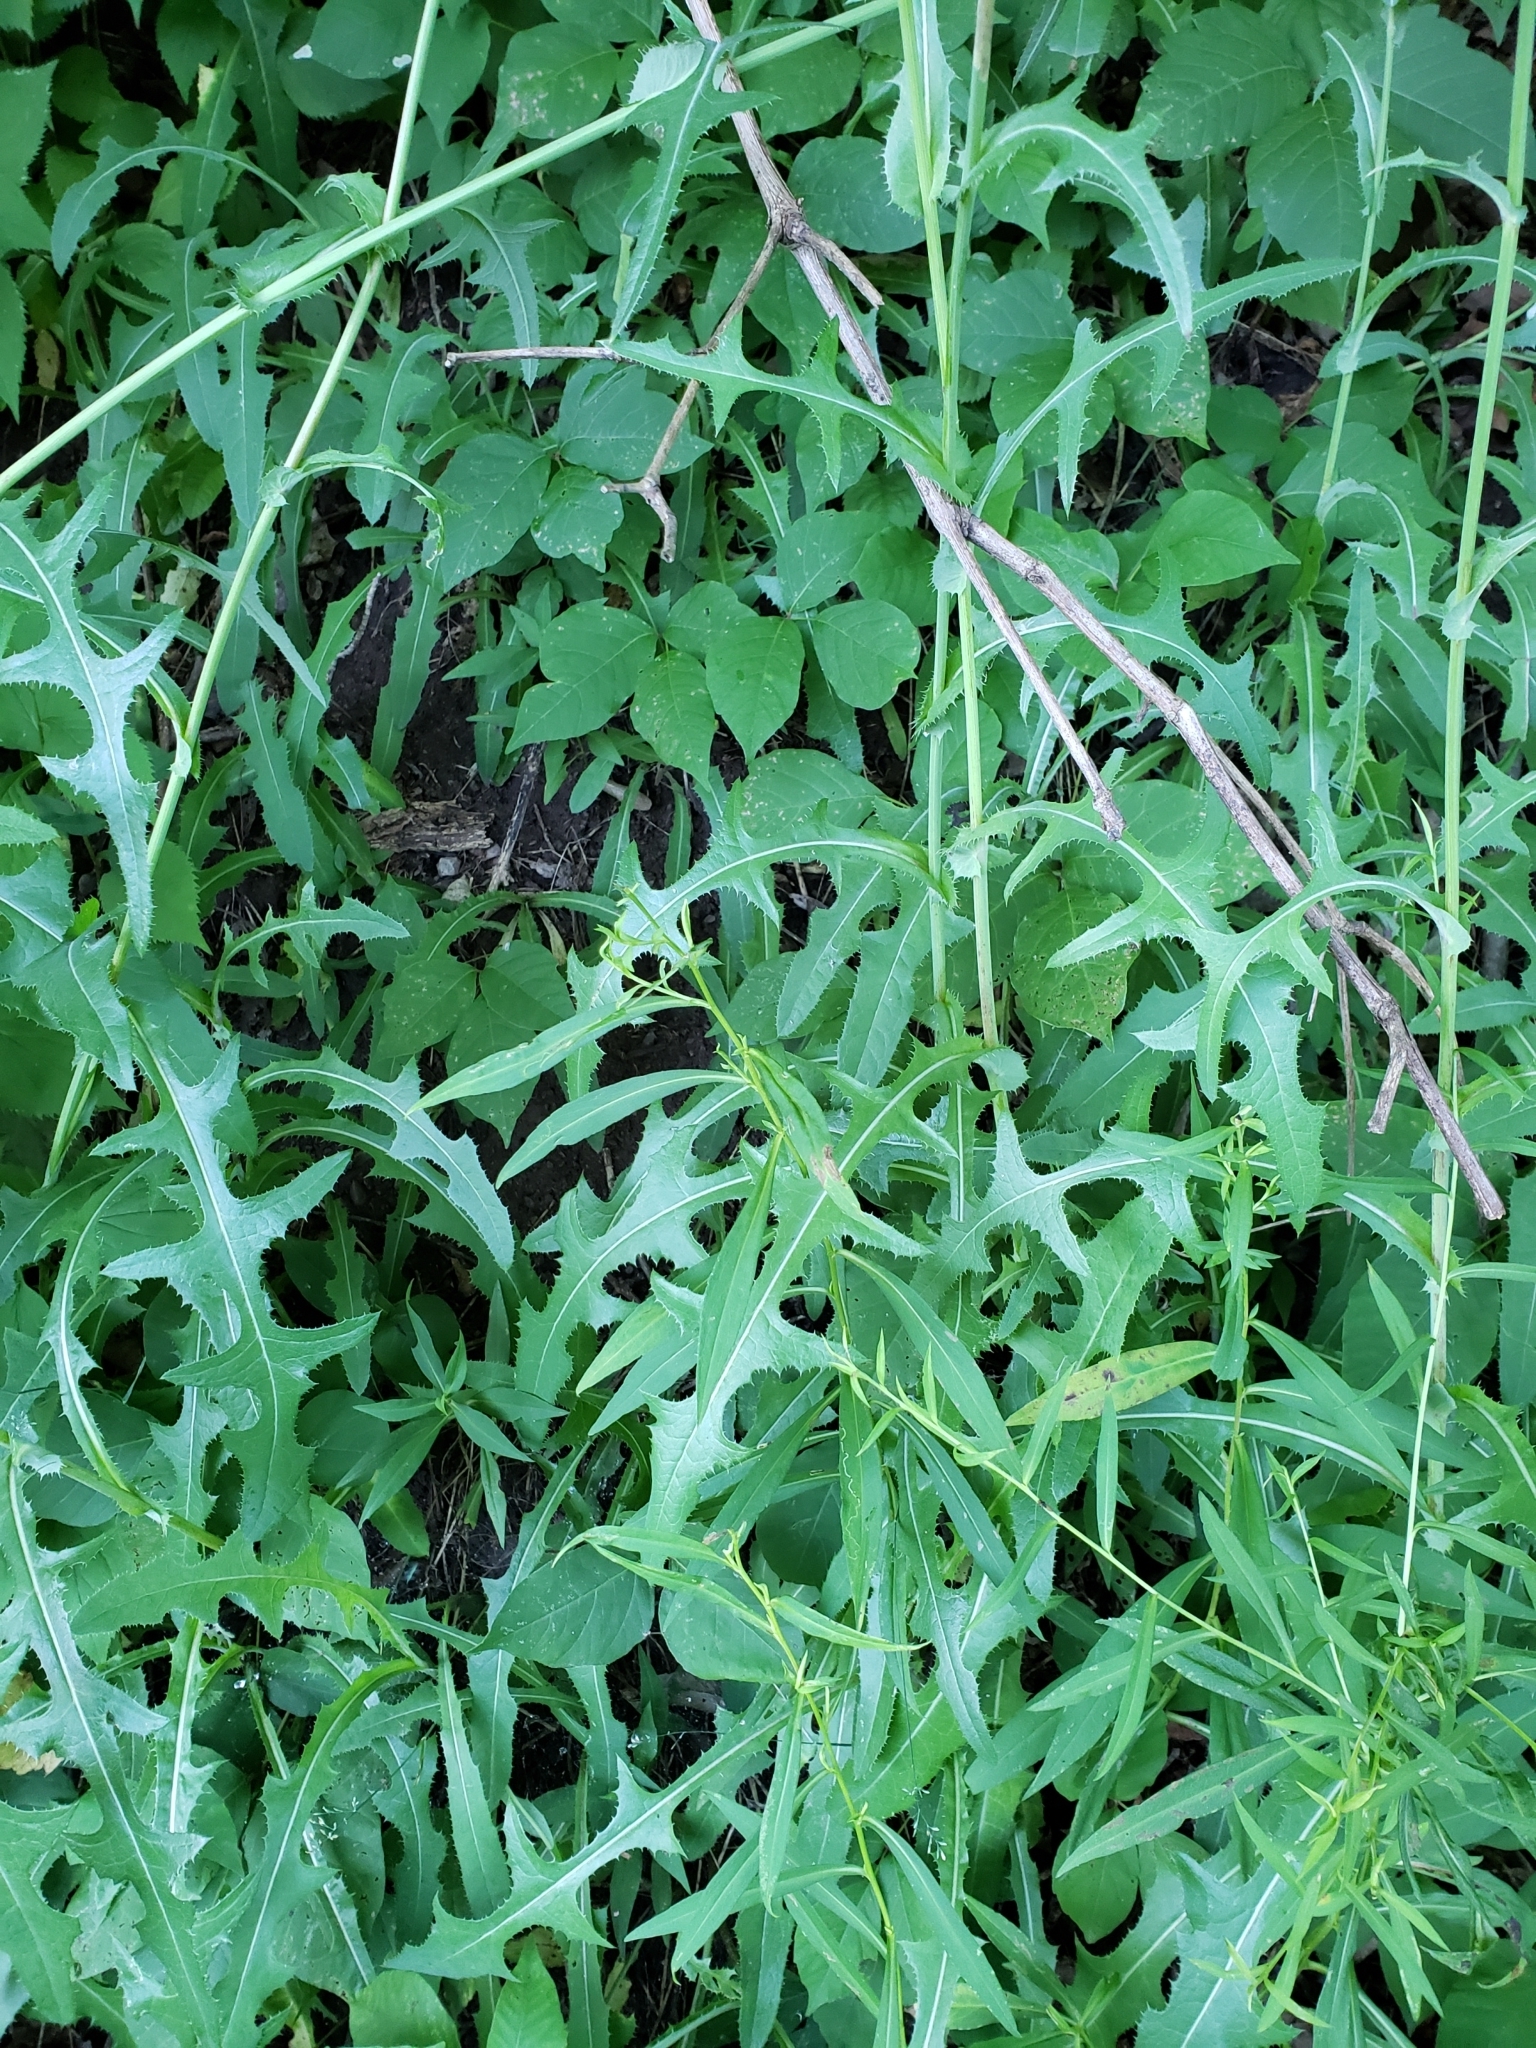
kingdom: Plantae
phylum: Tracheophyta
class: Magnoliopsida
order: Asterales
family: Asteraceae
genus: Sonchus
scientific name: Sonchus arvensis
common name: Perennial sow-thistle
